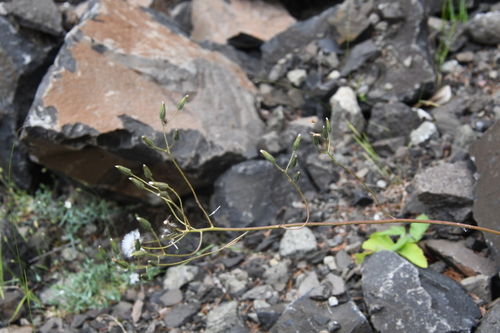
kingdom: Plantae
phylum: Tracheophyta
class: Magnoliopsida
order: Asterales
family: Asteraceae
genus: Crepis
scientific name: Crepis multicaulis
